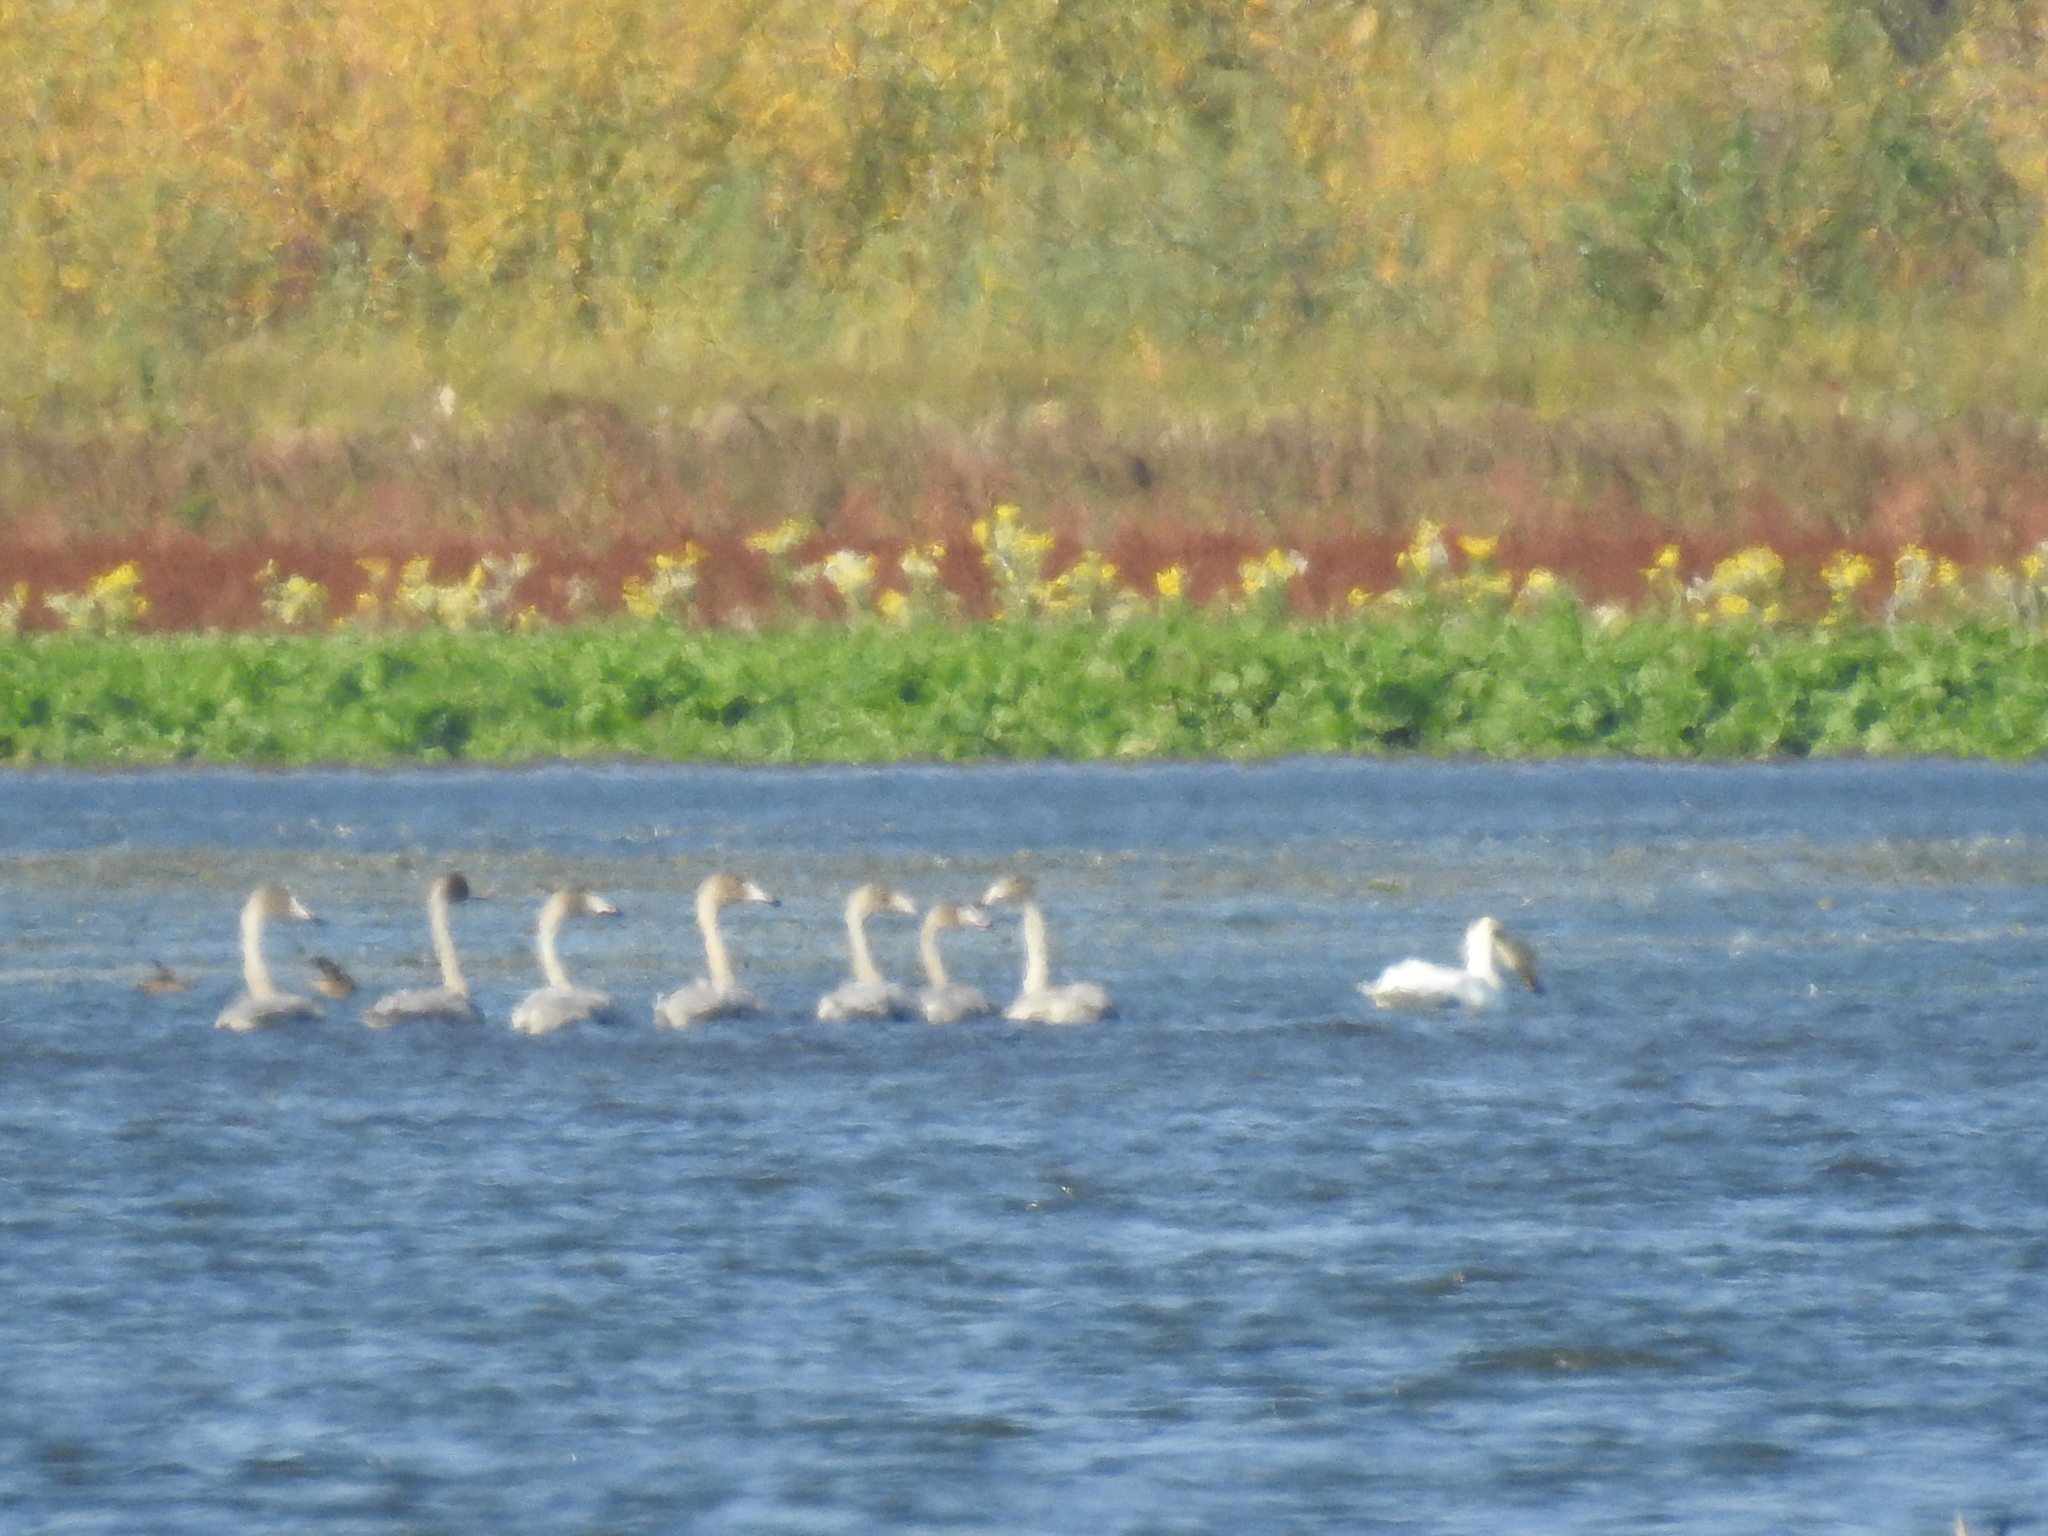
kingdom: Animalia
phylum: Chordata
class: Aves
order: Anseriformes
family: Anatidae
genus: Cygnus
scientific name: Cygnus cygnus
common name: Whooper swan
